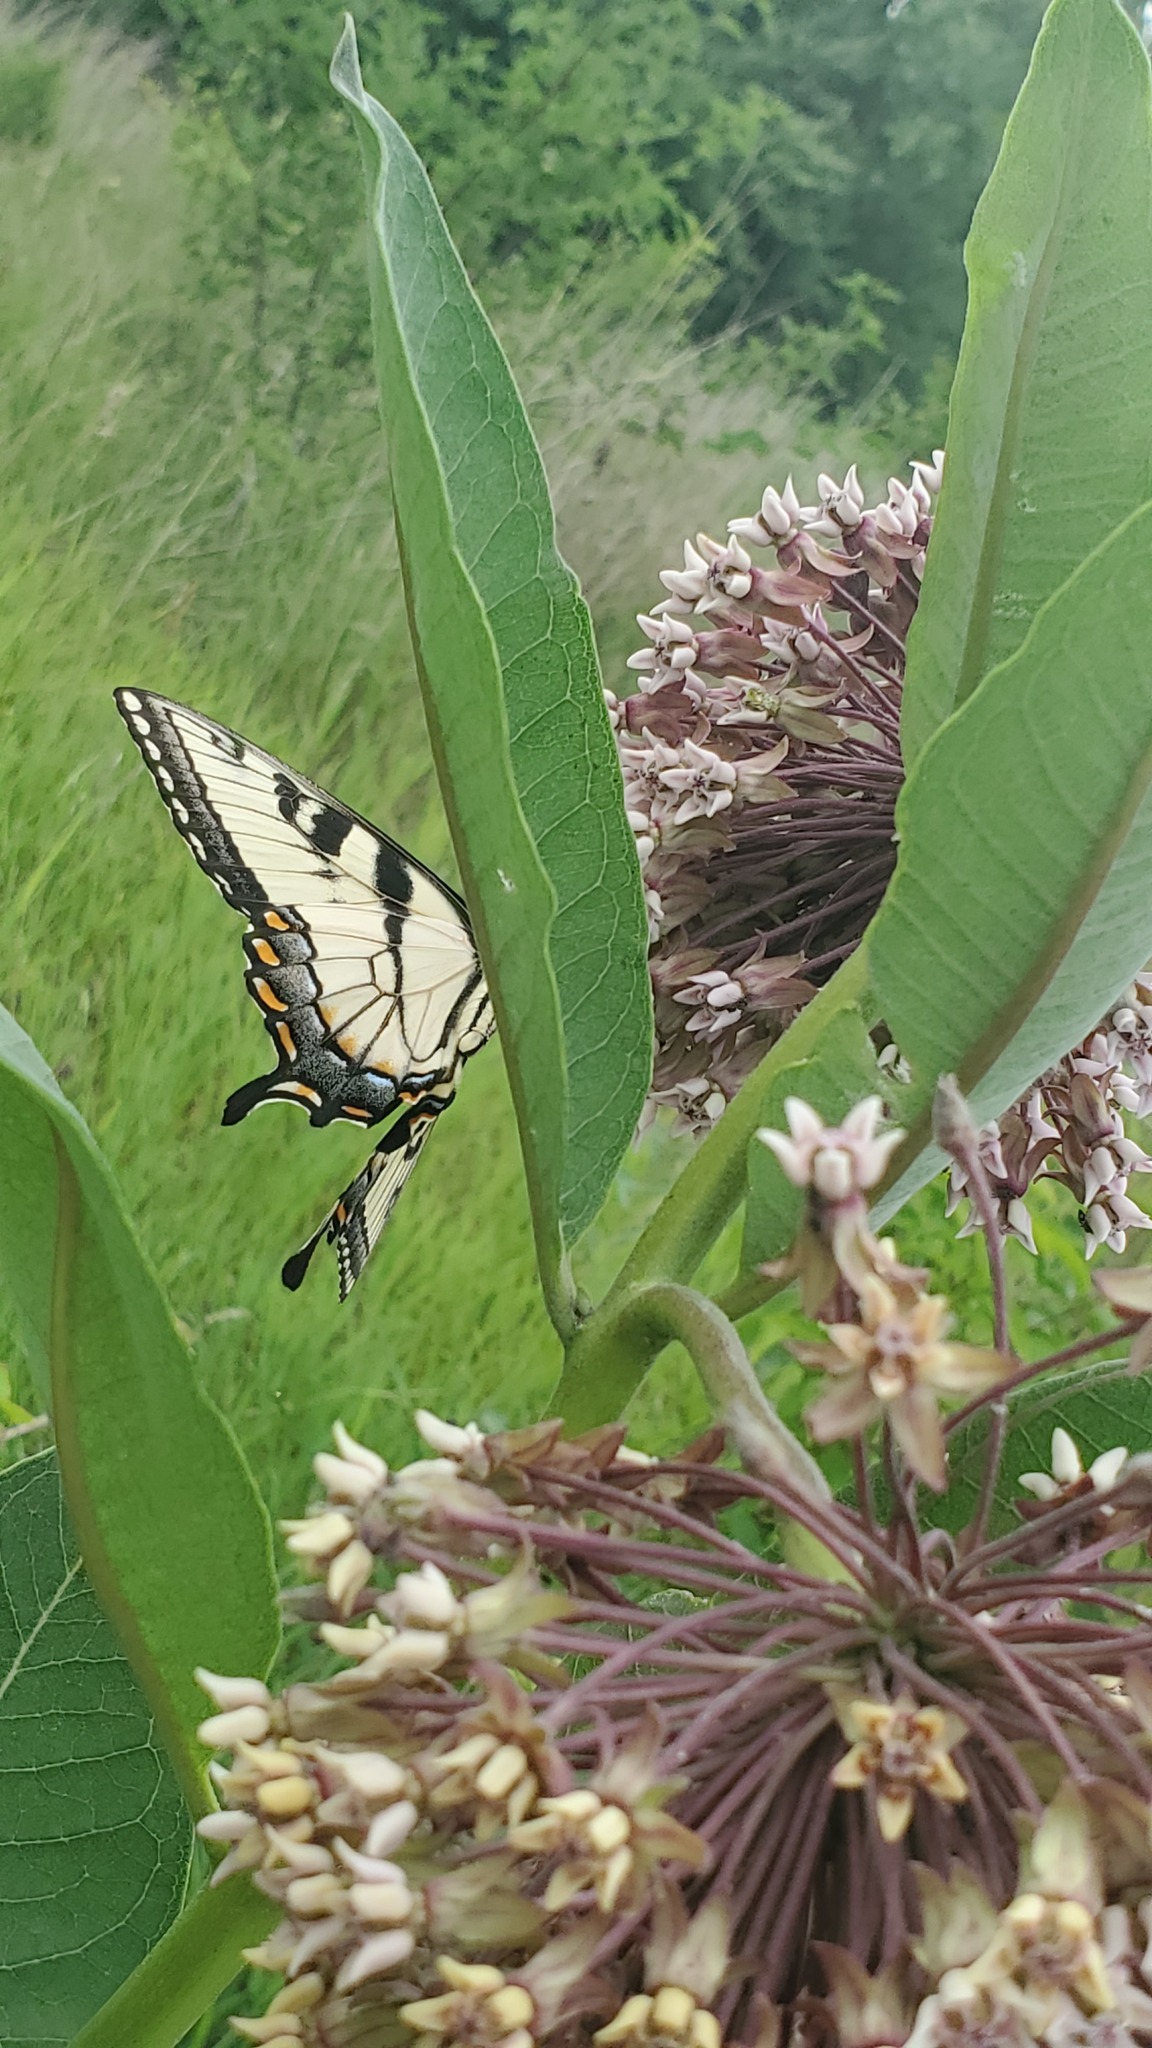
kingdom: Animalia
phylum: Arthropoda
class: Insecta
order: Lepidoptera
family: Papilionidae
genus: Papilio
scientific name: Papilio glaucus
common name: Tiger swallowtail
